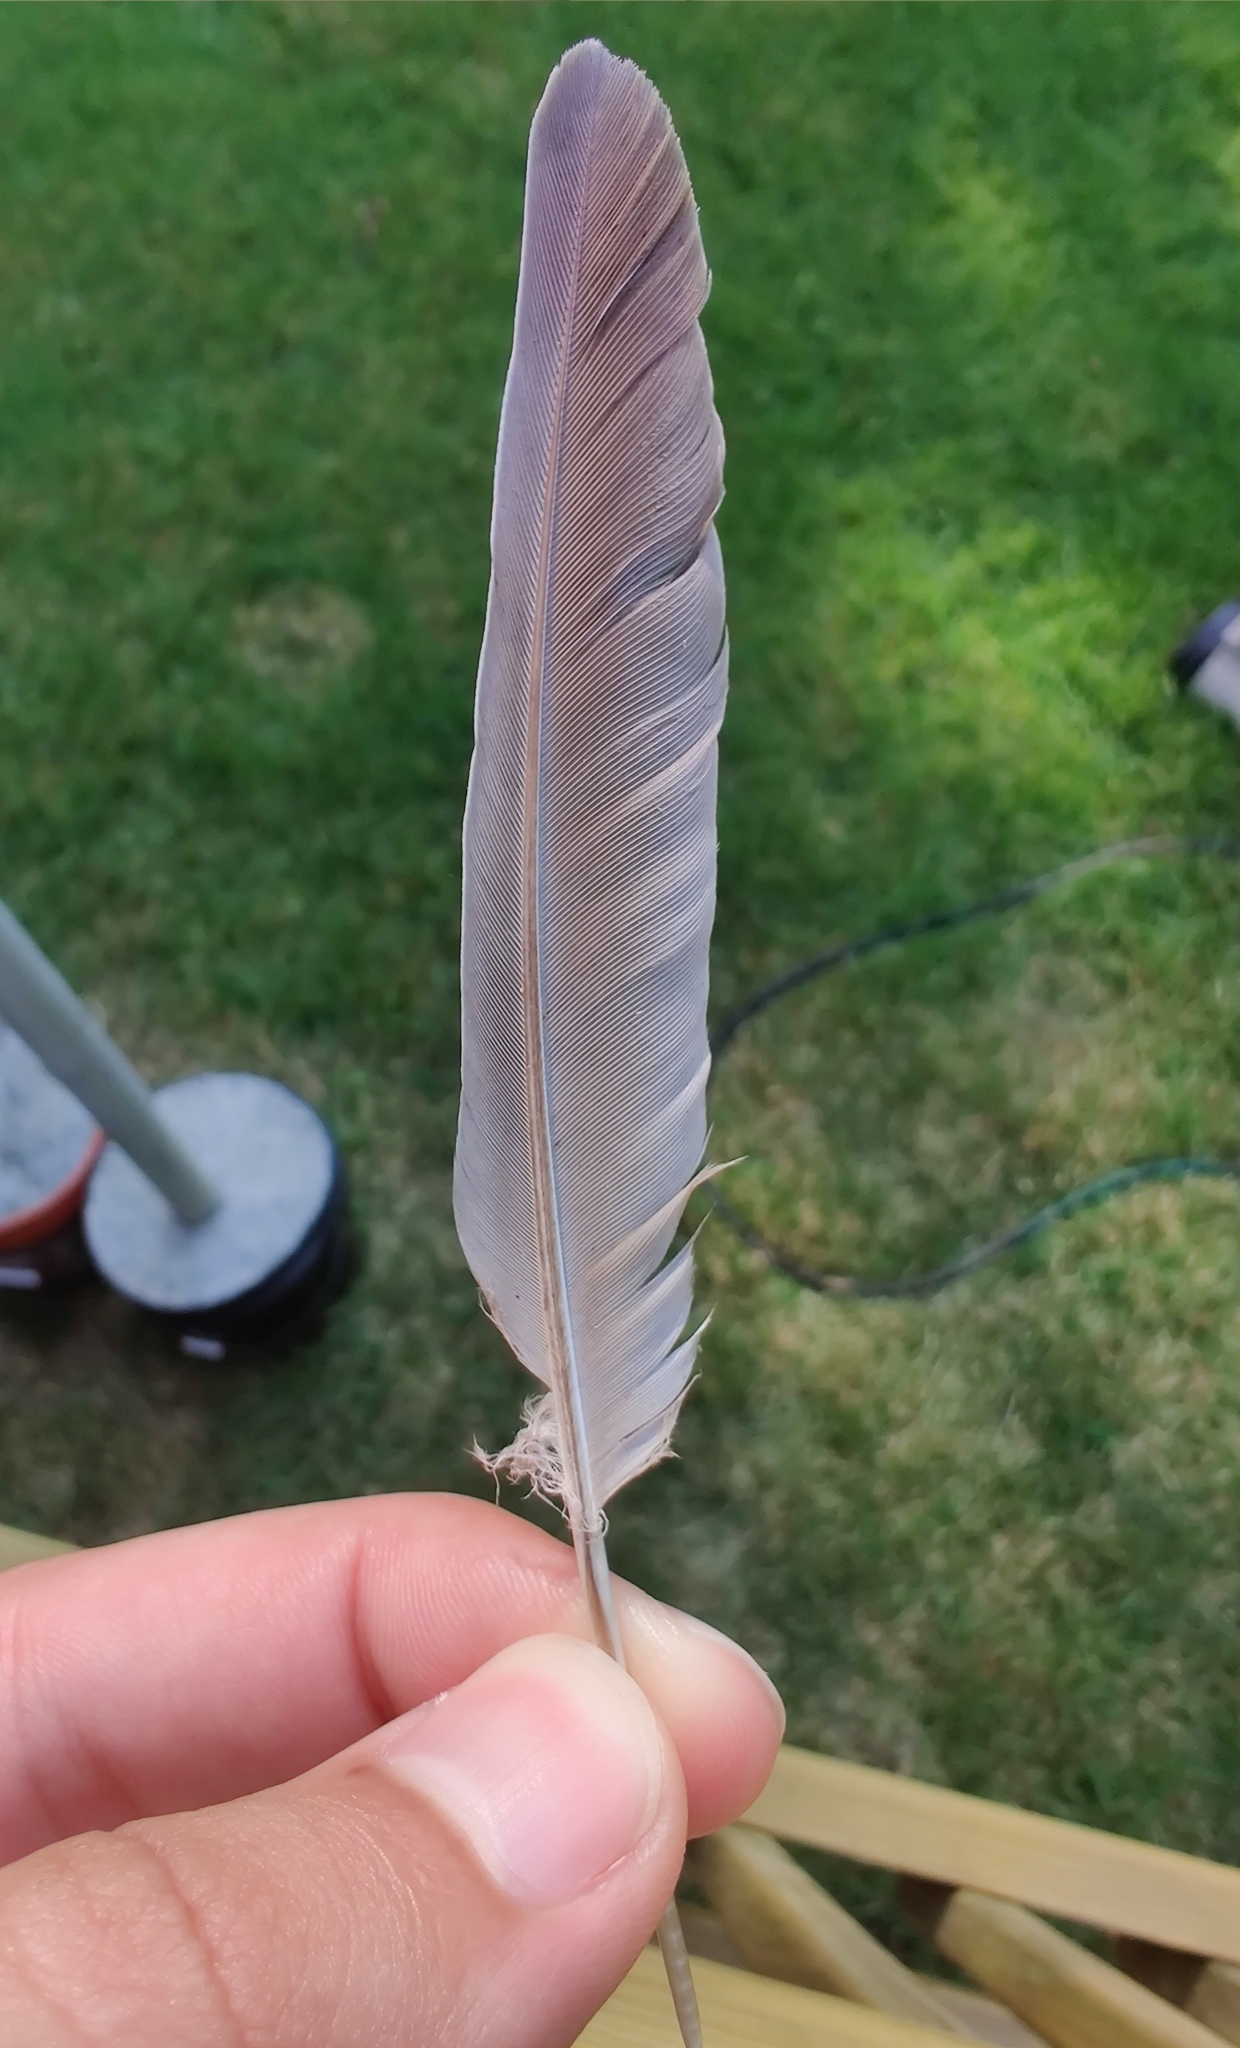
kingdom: Animalia
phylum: Chordata
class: Aves
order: Columbiformes
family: Columbidae
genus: Zenaida
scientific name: Zenaida macroura
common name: Mourning dove
